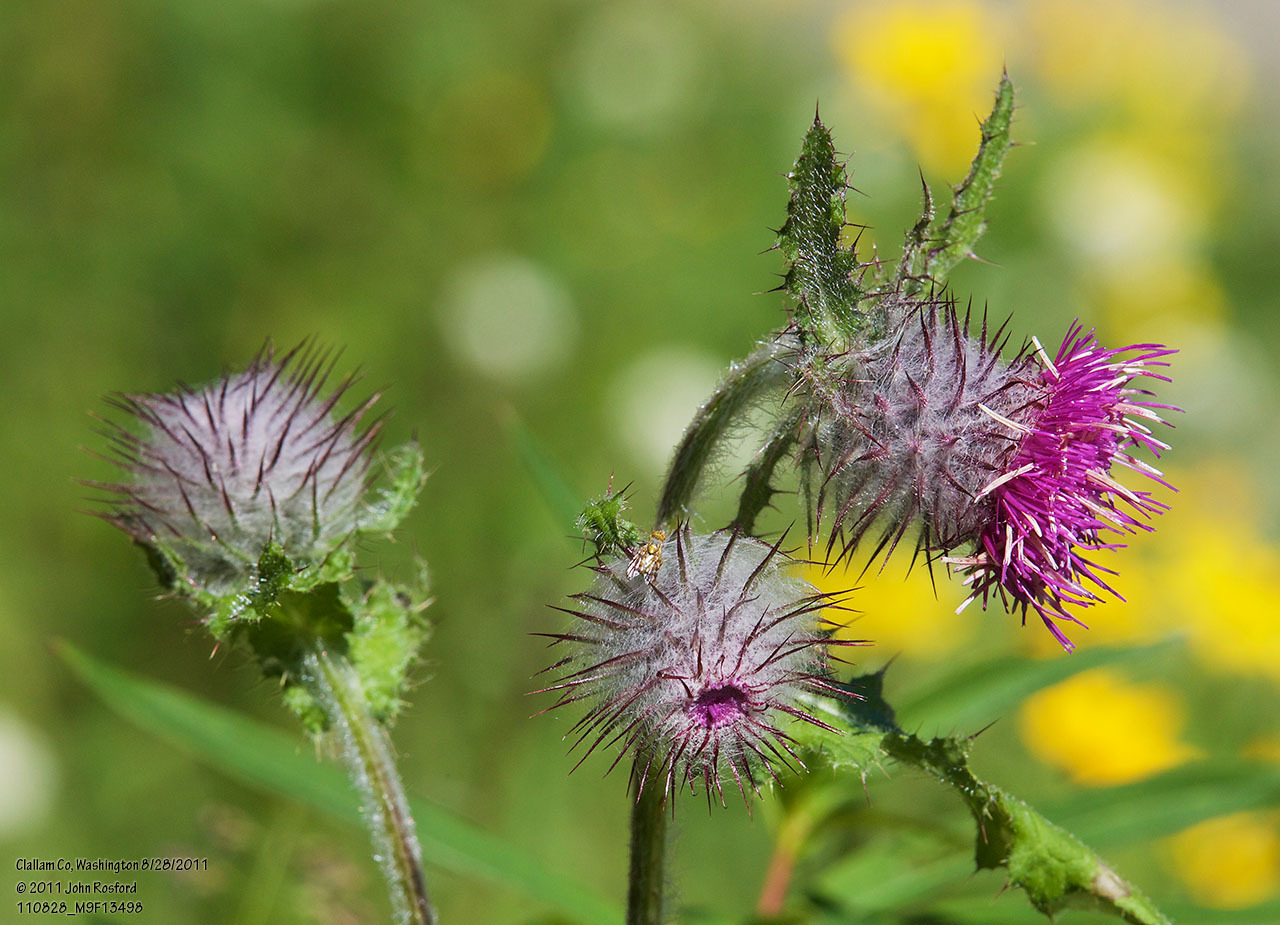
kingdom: Plantae
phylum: Tracheophyta
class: Magnoliopsida
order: Asterales
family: Asteraceae
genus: Cirsium
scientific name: Cirsium edule
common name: Indian thistle
